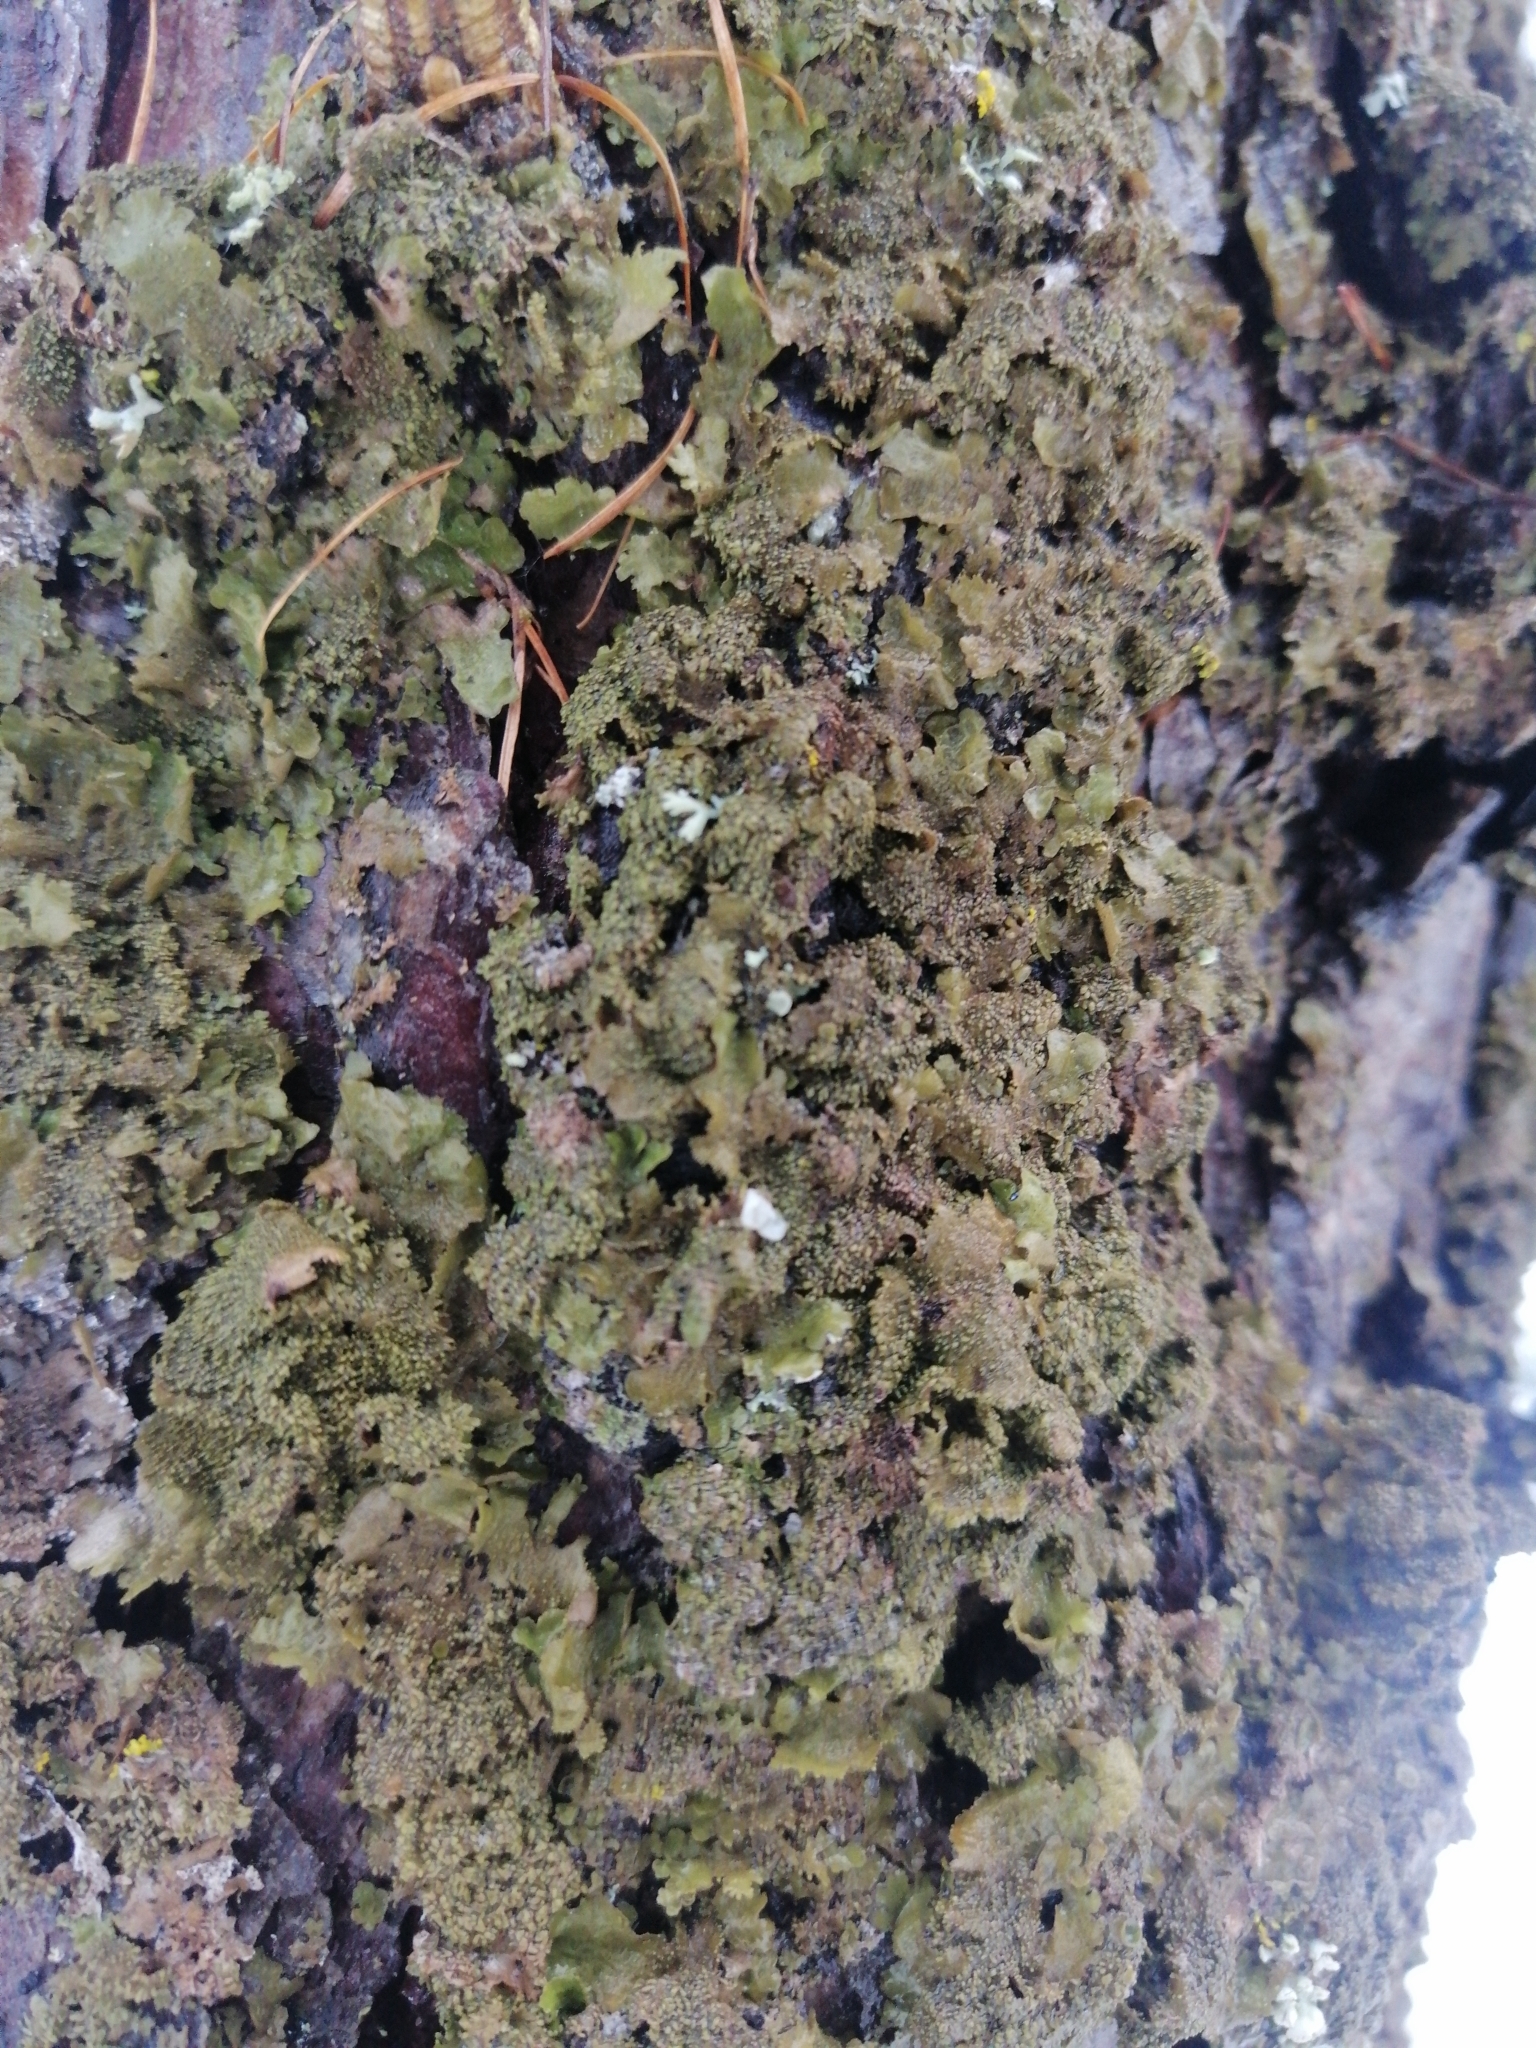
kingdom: Fungi
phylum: Ascomycota
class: Lecanoromycetes
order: Lecanorales
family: Parmeliaceae
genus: Melanohalea
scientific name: Melanohalea exasperatula
